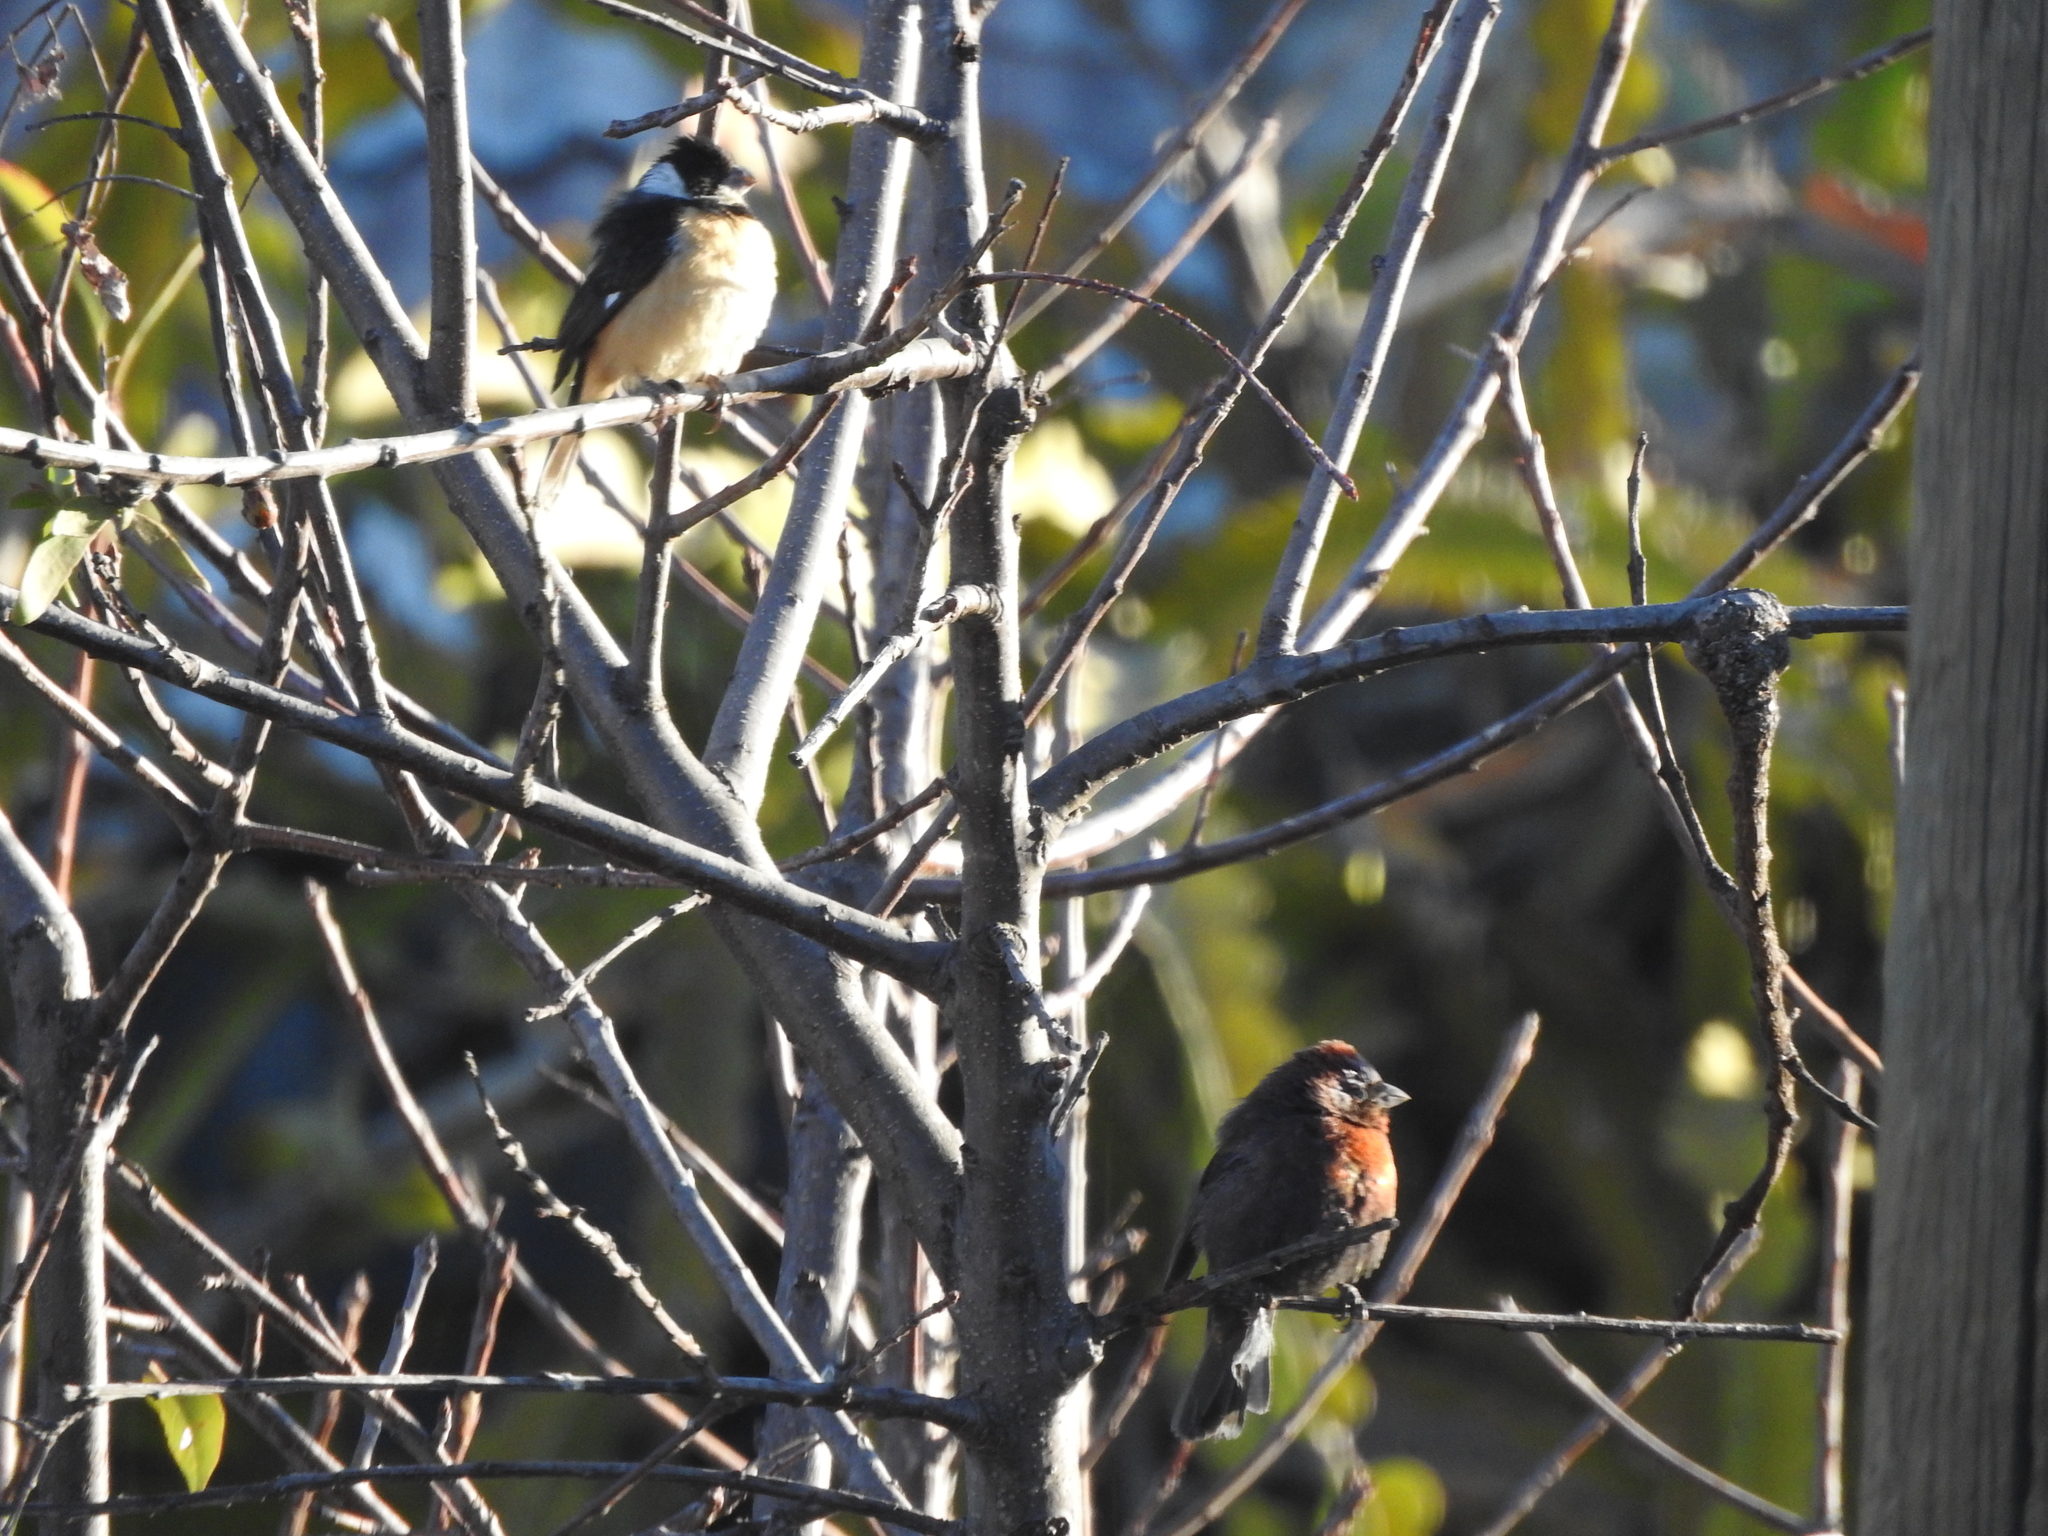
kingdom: Animalia
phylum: Chordata
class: Aves
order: Passeriformes
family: Cardinalidae
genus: Passerina
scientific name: Passerina versicolor
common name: Varied bunting
